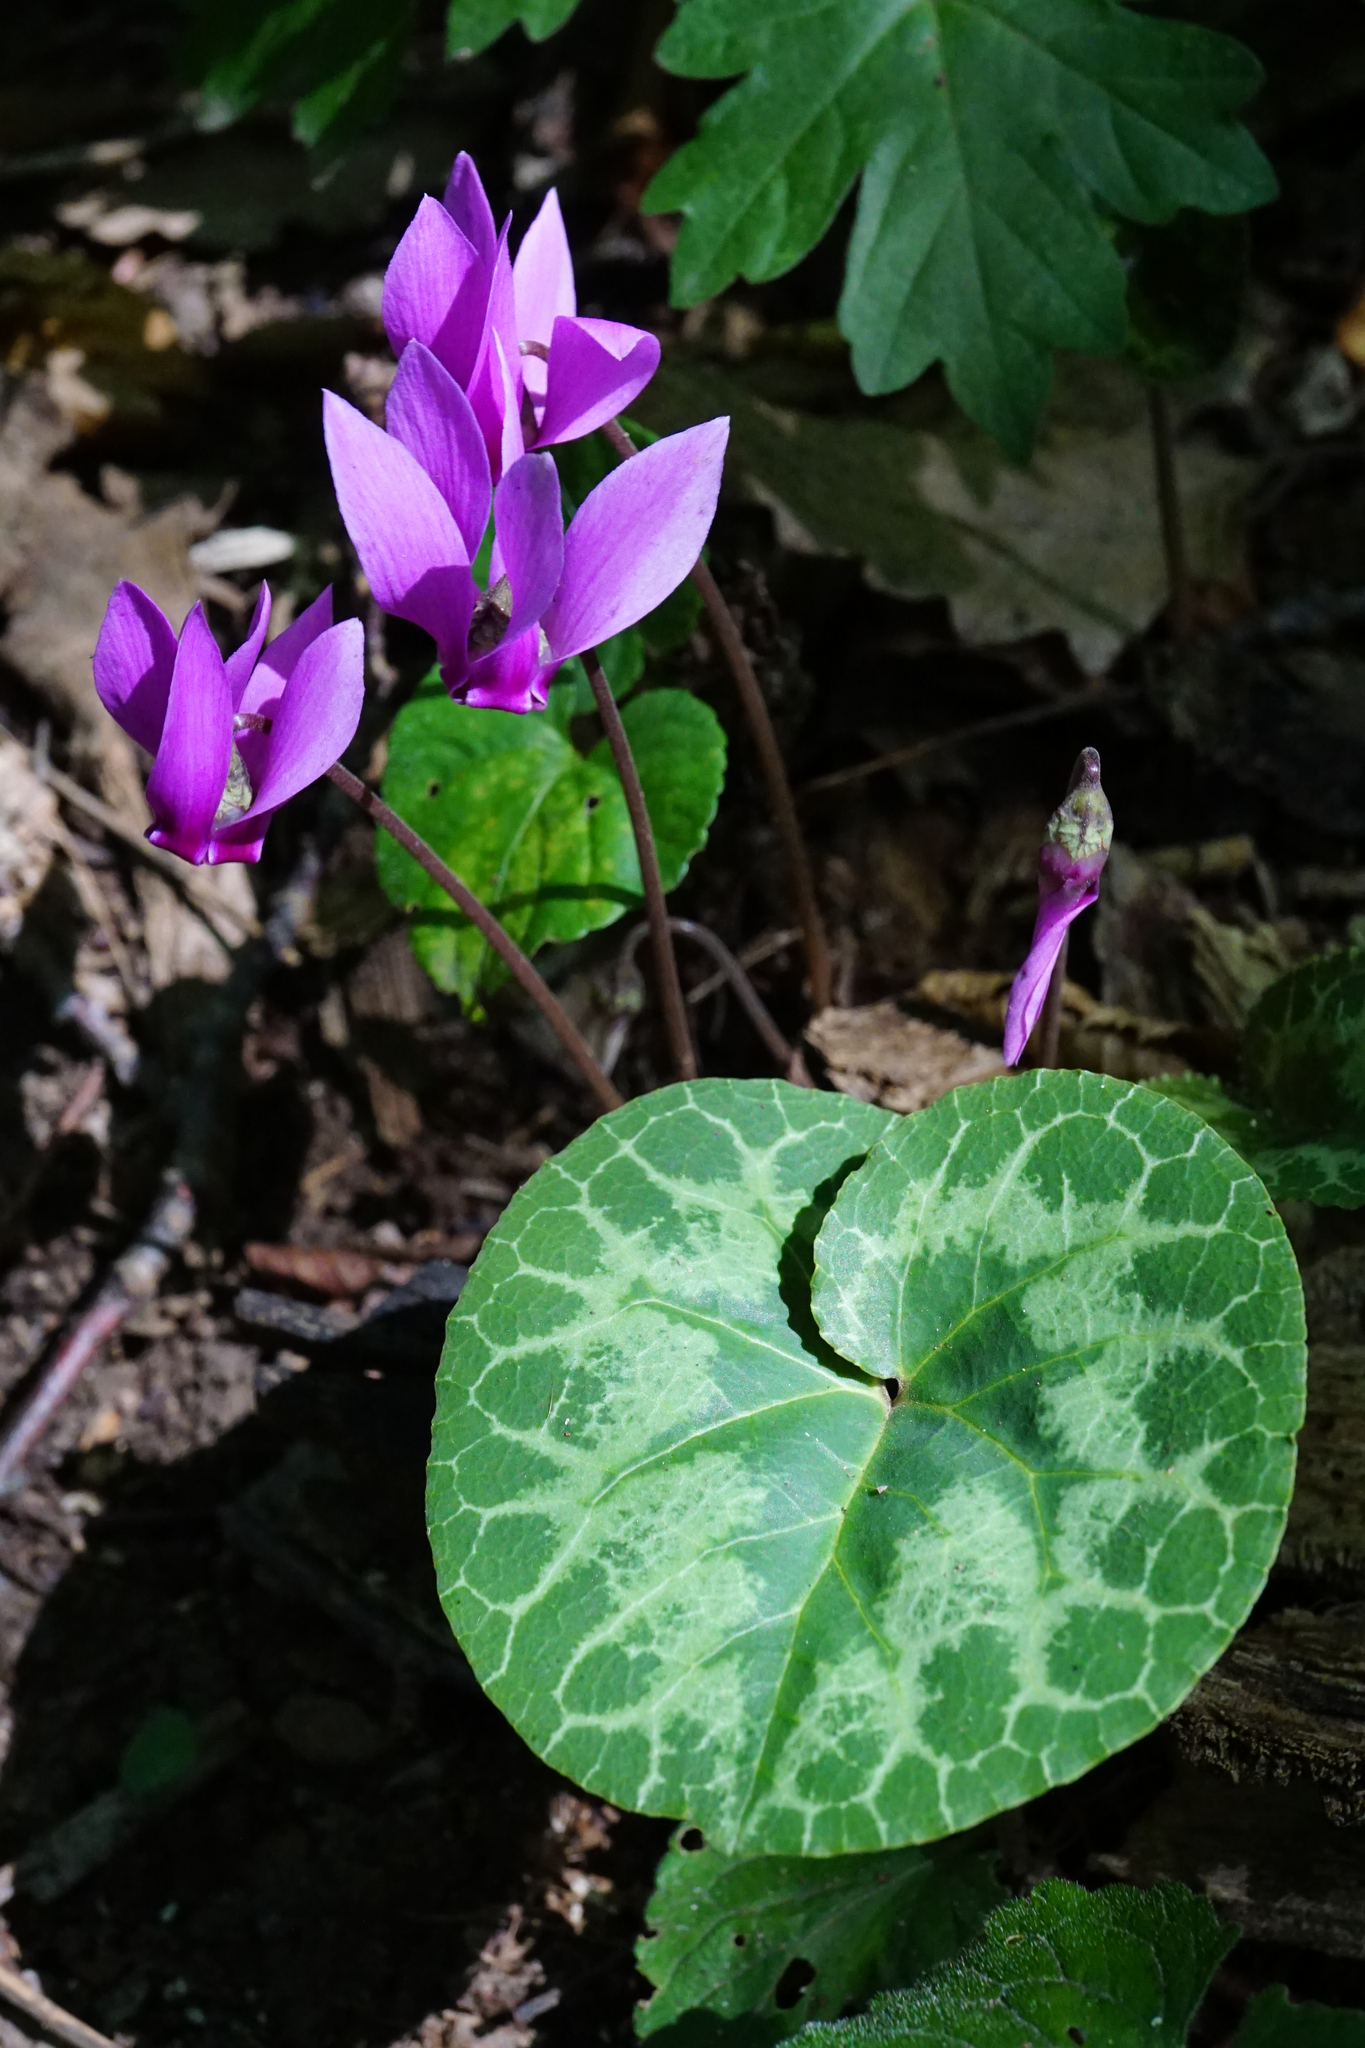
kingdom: Plantae
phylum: Tracheophyta
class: Magnoliopsida
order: Ericales
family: Primulaceae
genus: Cyclamen
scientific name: Cyclamen purpurascens
